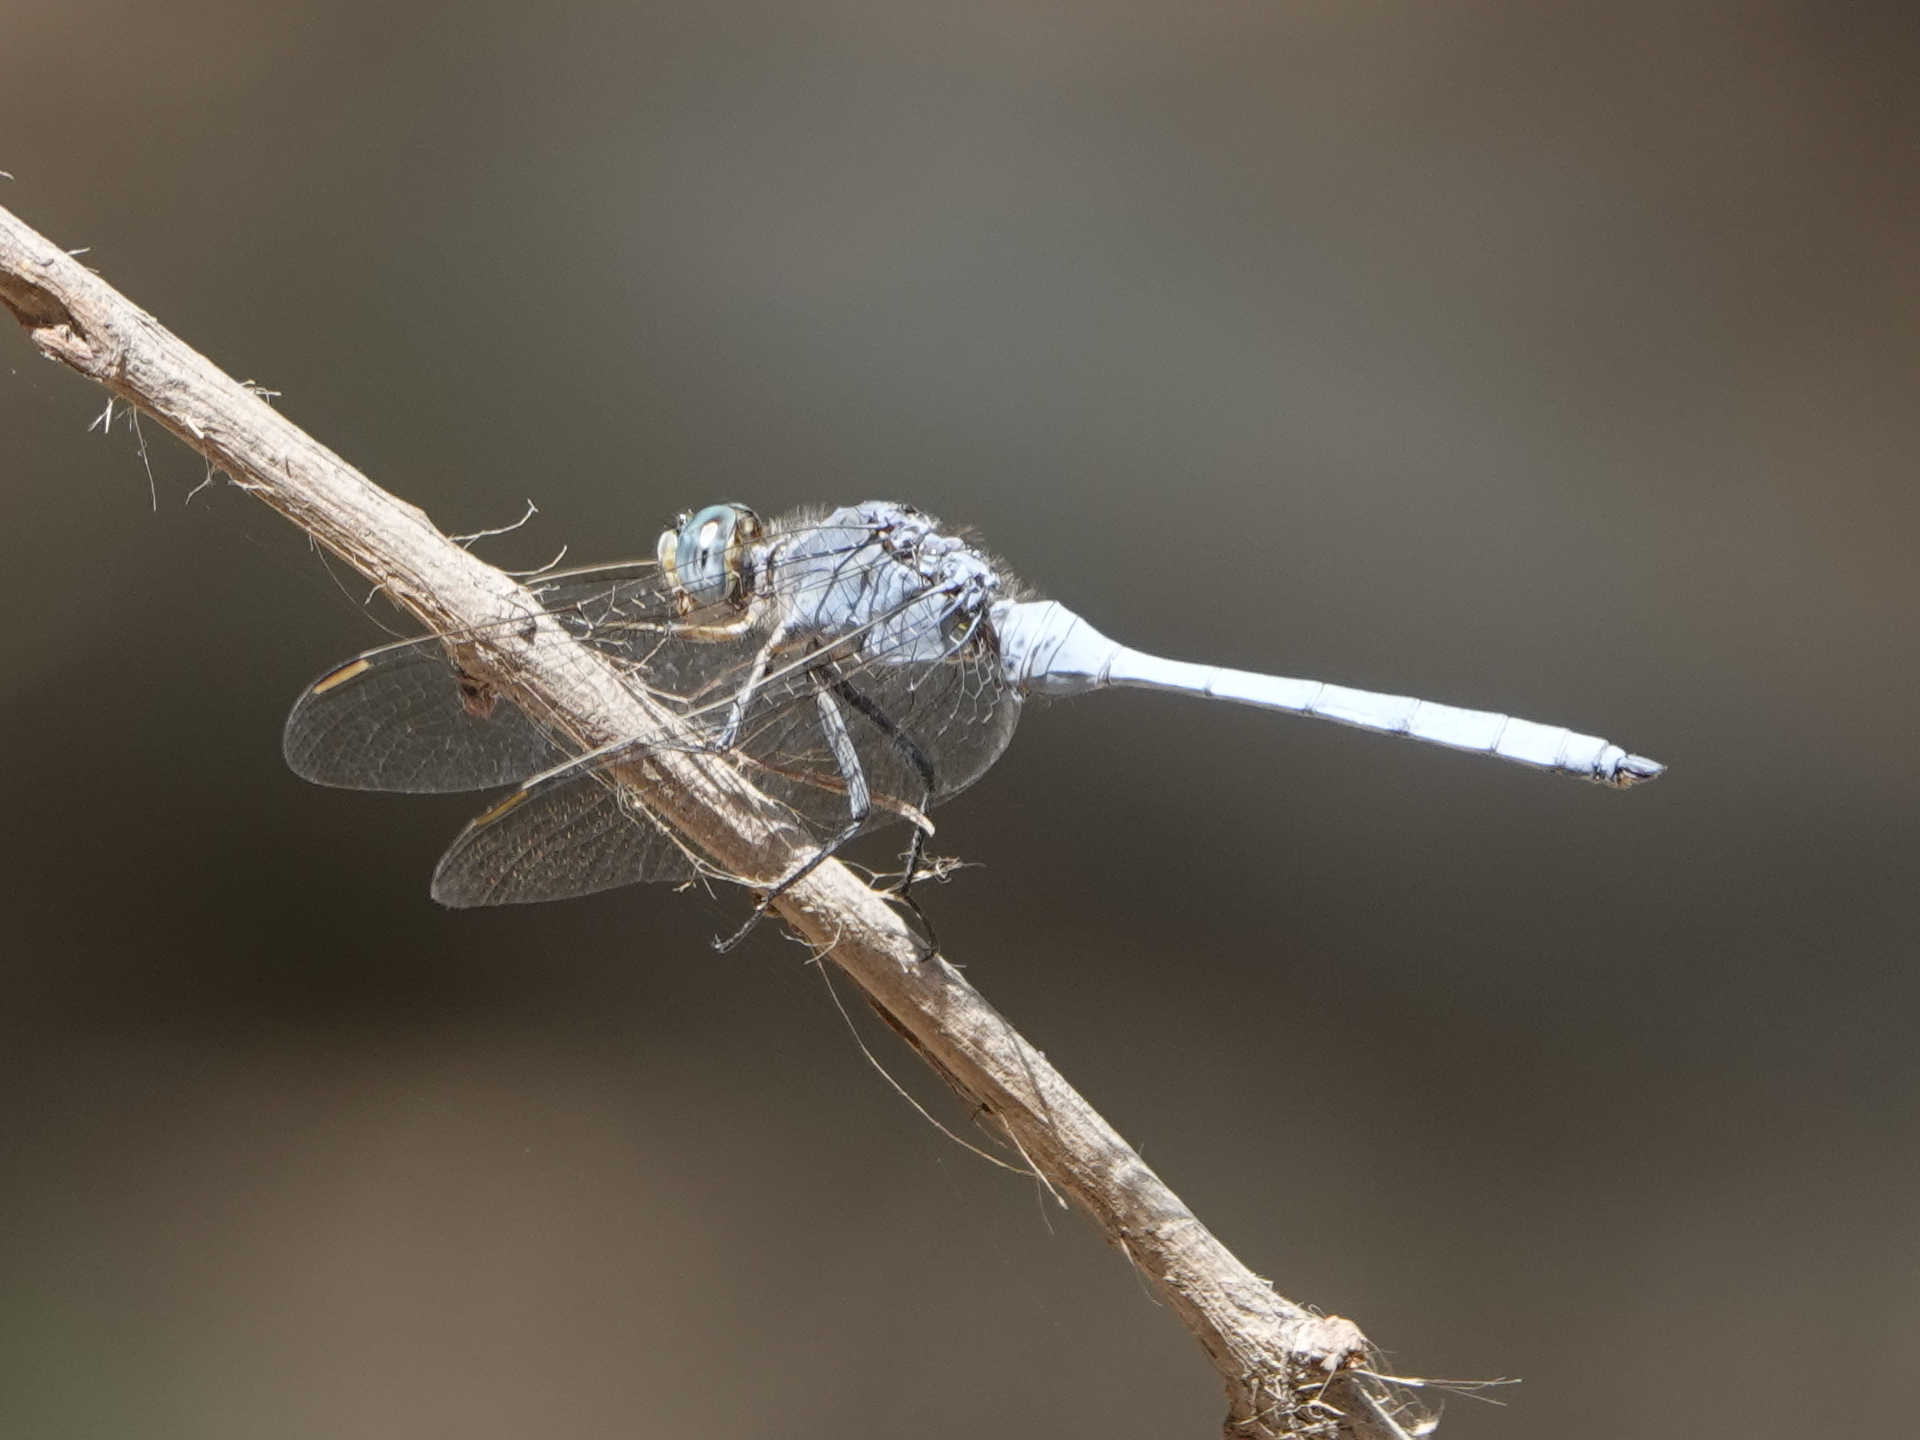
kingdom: Animalia
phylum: Arthropoda
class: Insecta
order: Odonata
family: Libellulidae
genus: Orthetrum
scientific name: Orthetrum chrysostigma
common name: Epaulet skimmer
